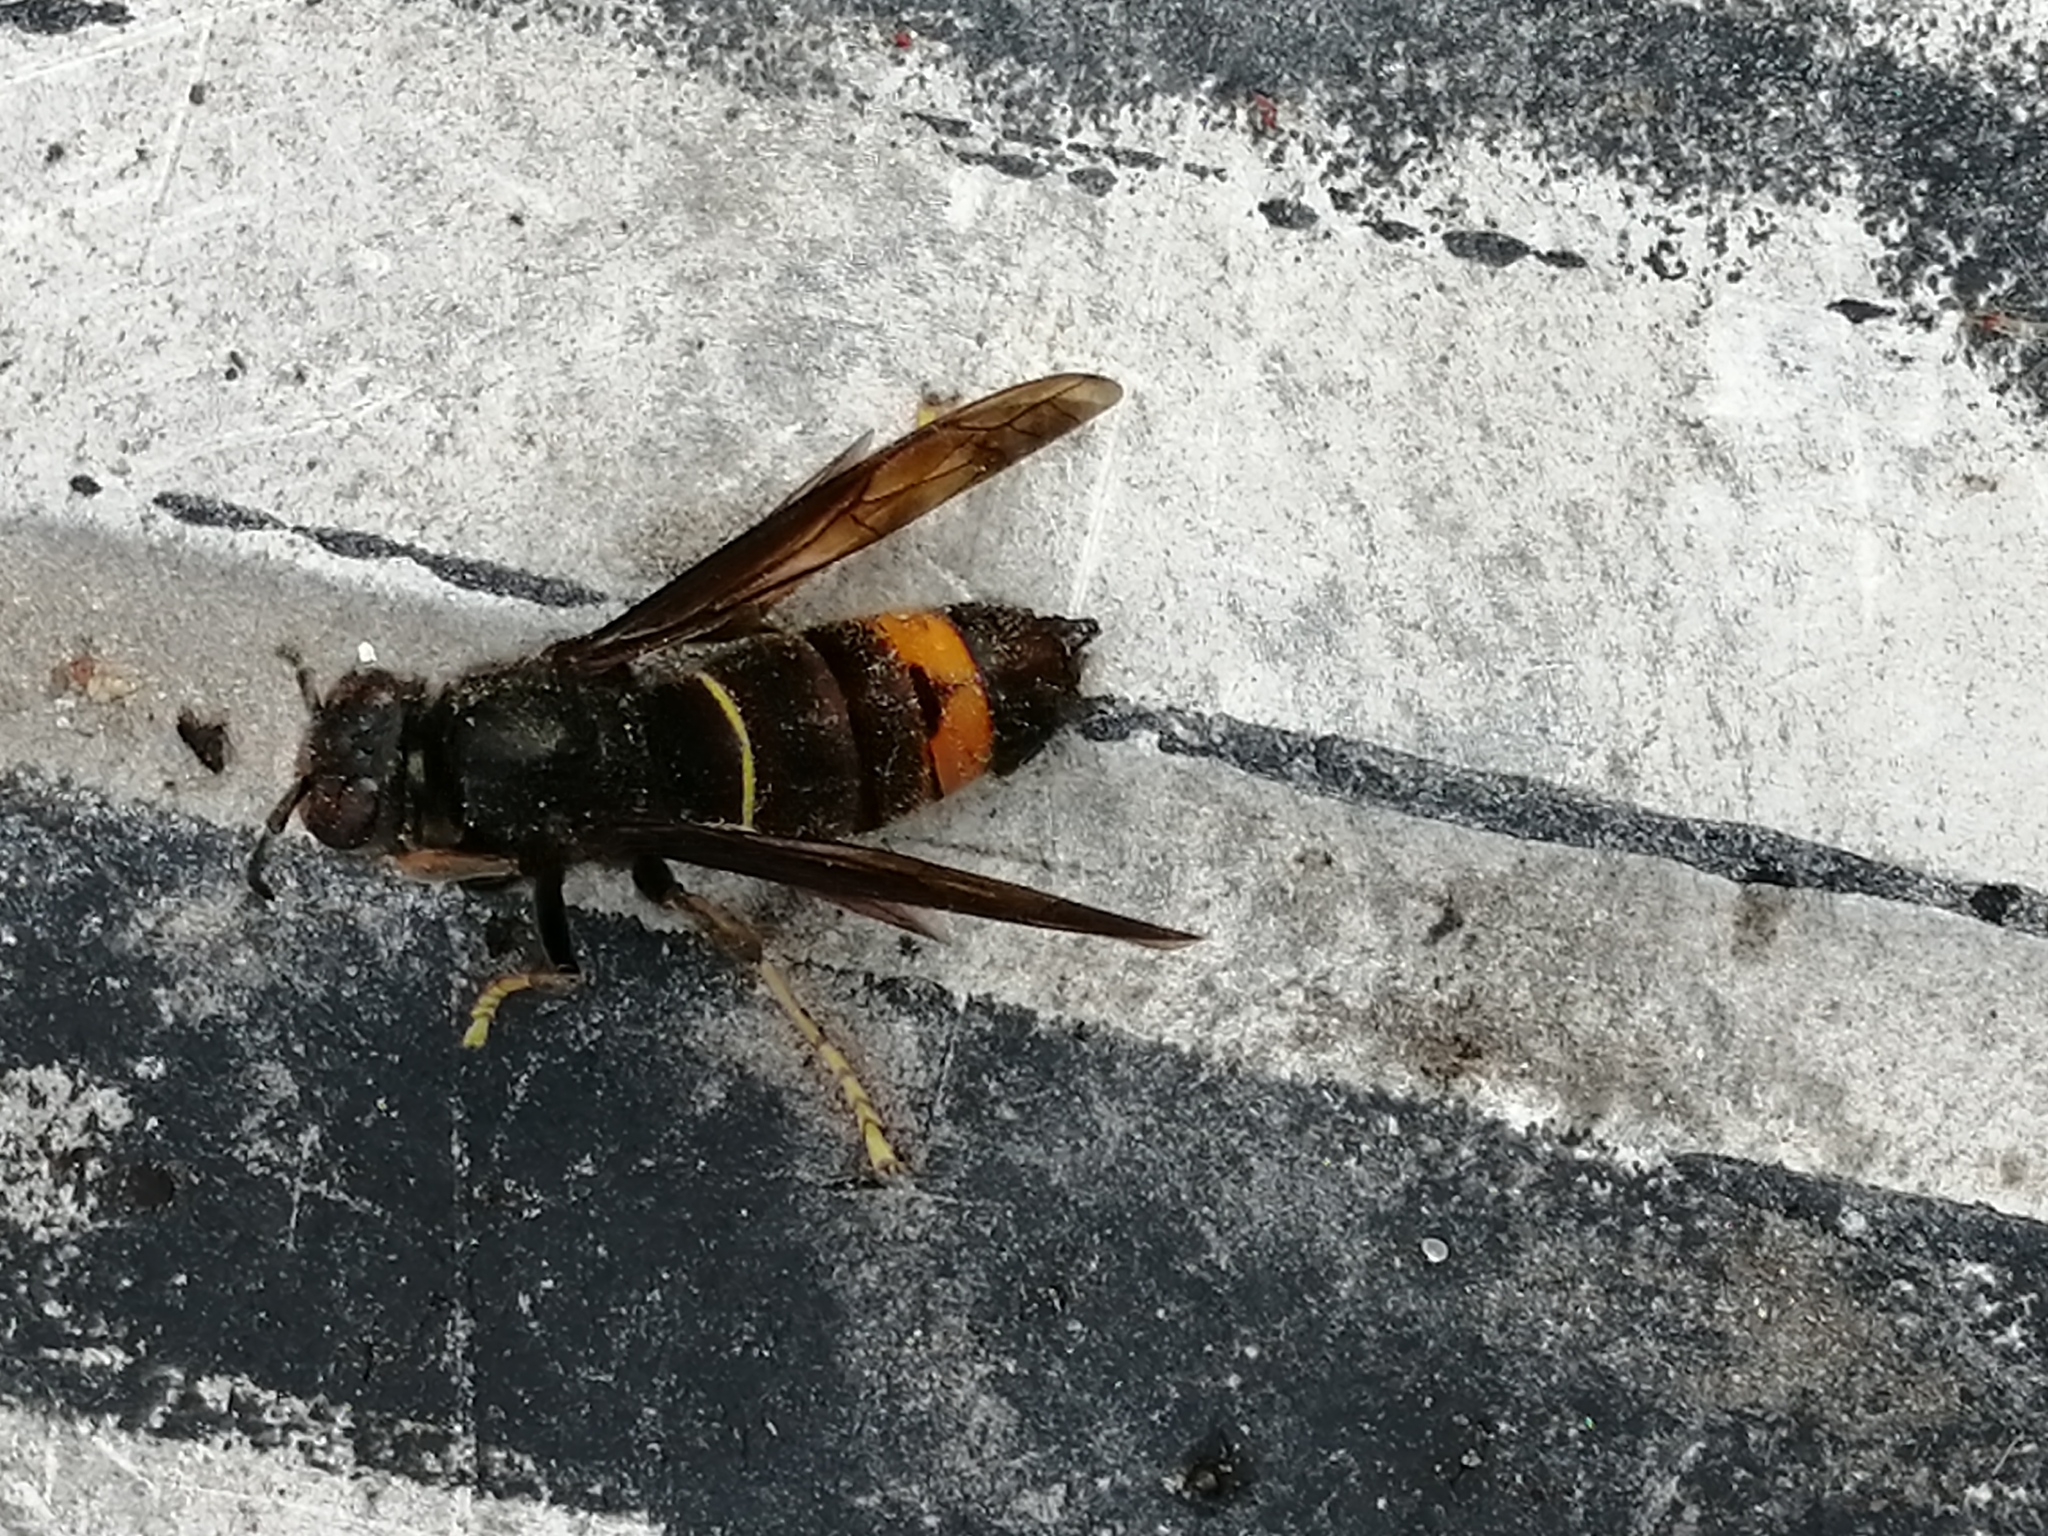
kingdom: Animalia
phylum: Arthropoda
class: Insecta
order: Hymenoptera
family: Vespidae
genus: Vespa
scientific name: Vespa velutina
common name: Asian hornet
